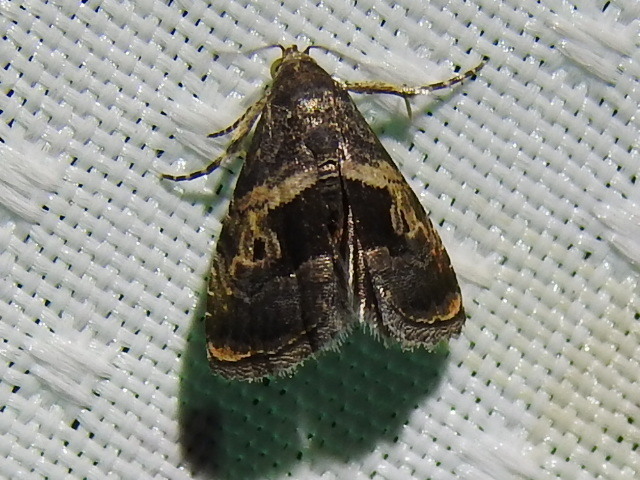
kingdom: Animalia
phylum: Arthropoda
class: Insecta
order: Lepidoptera
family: Noctuidae
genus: Tripudia
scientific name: Tripudia quadrifera
